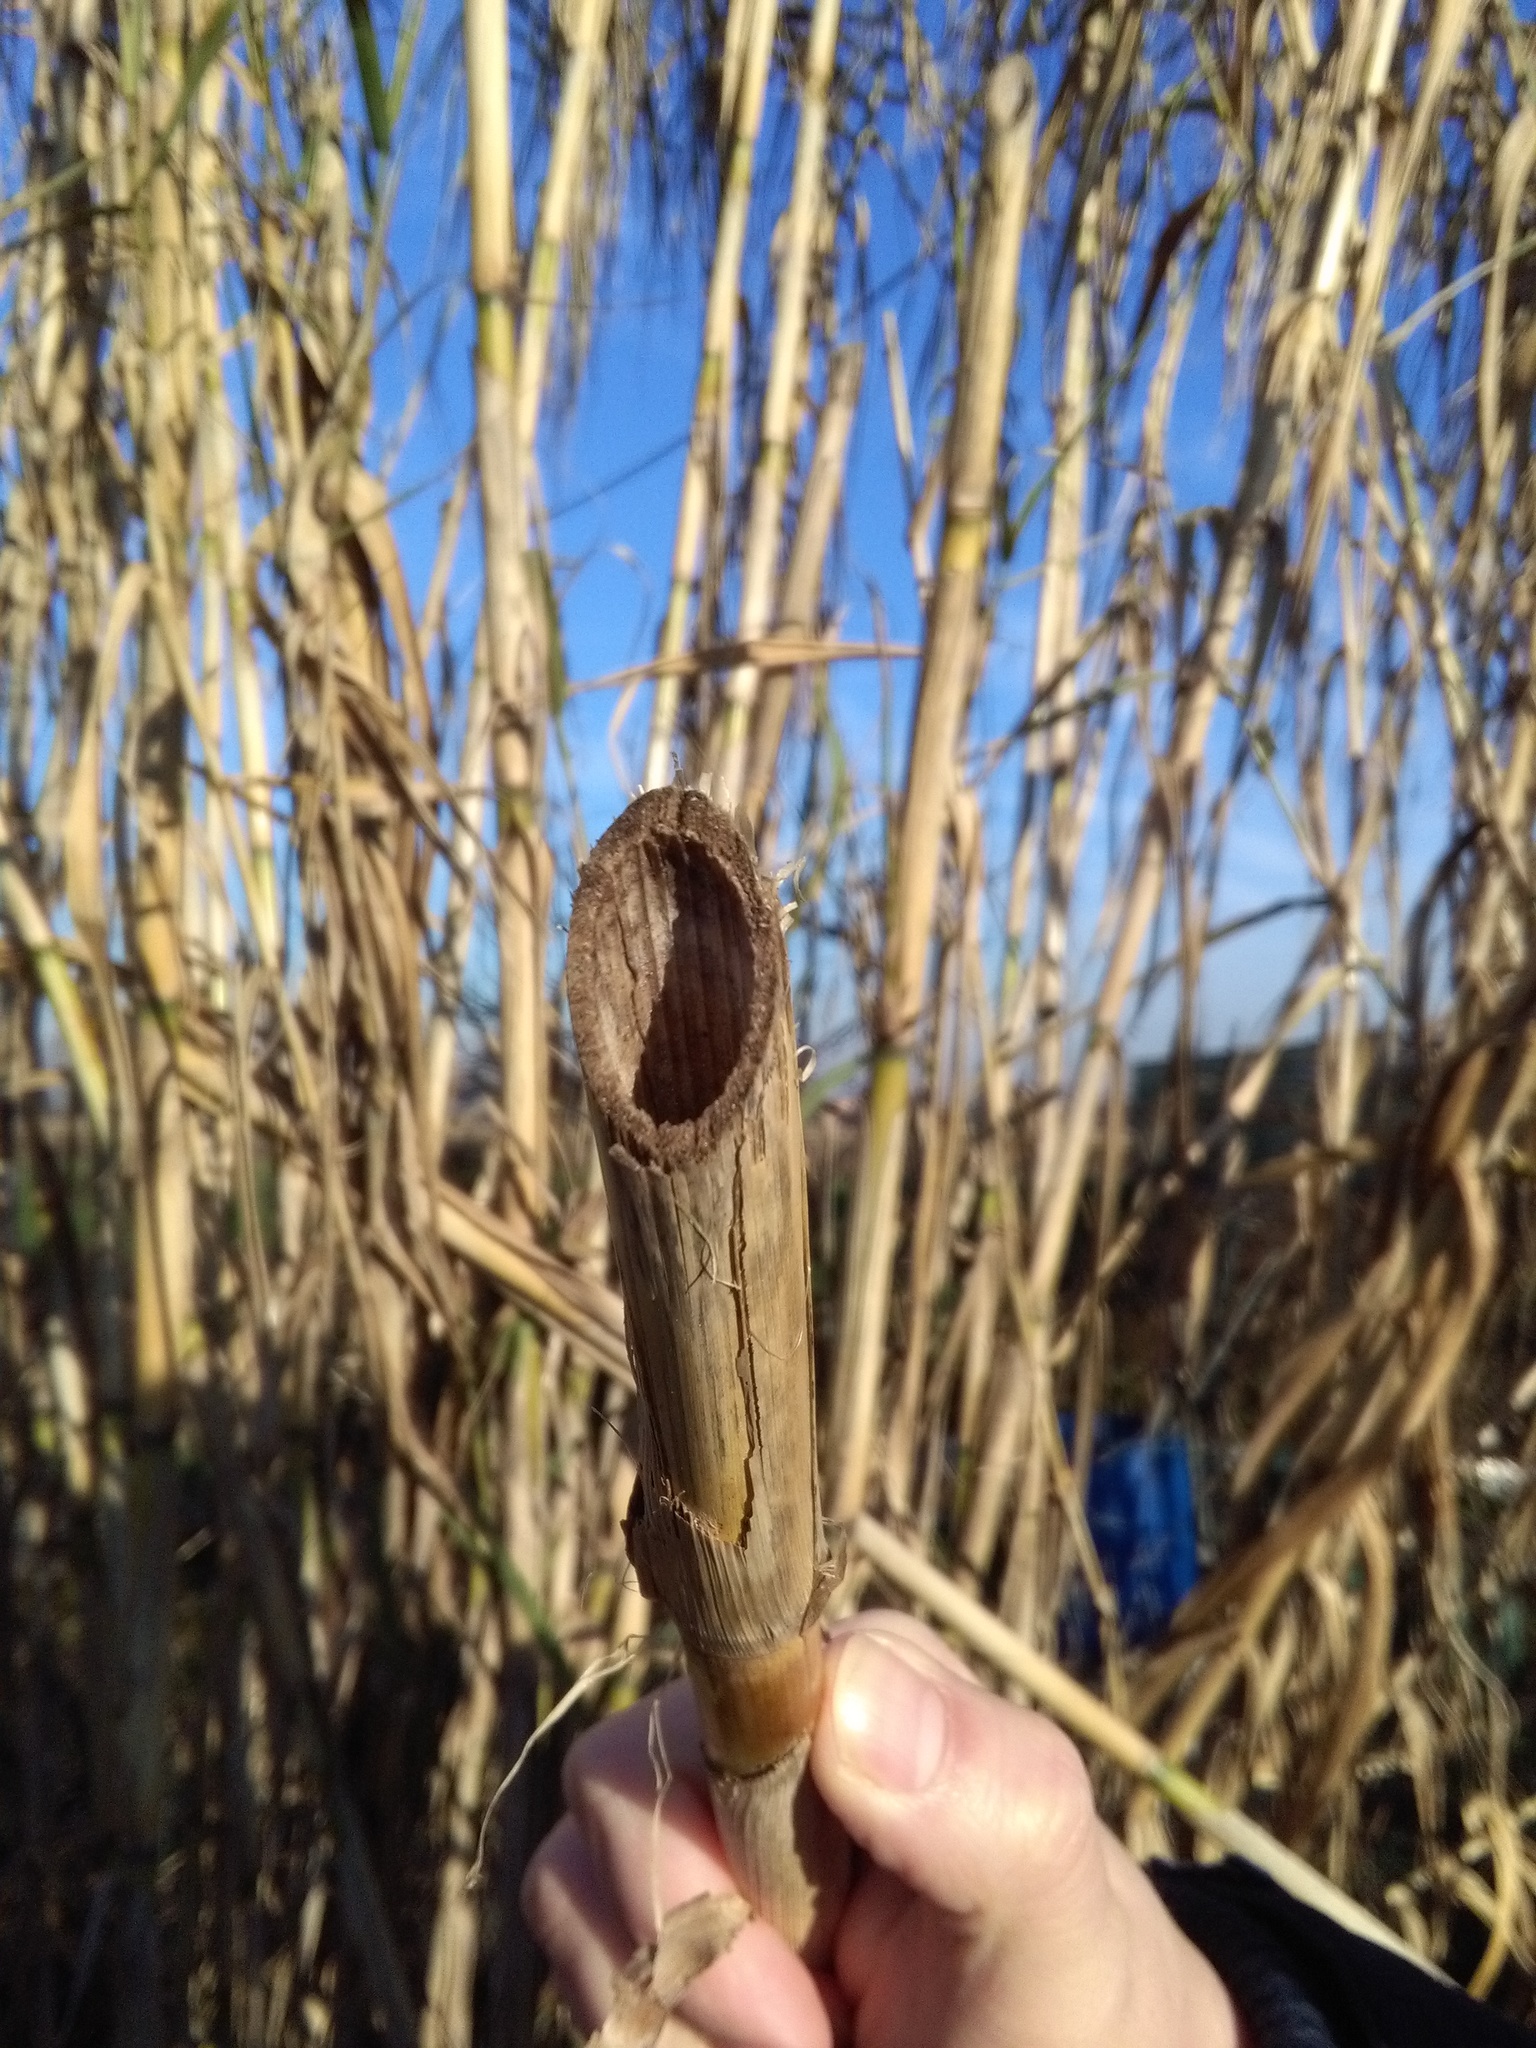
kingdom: Plantae
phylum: Tracheophyta
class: Liliopsida
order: Poales
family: Poaceae
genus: Arundo
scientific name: Arundo donax
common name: Giant reed
